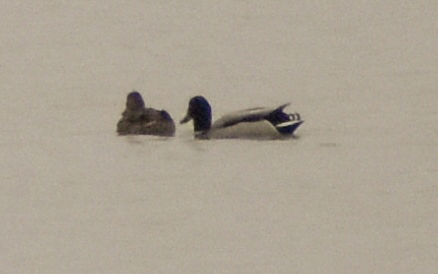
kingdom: Animalia
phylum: Chordata
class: Aves
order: Anseriformes
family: Anatidae
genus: Anas
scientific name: Anas platyrhynchos
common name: Mallard
